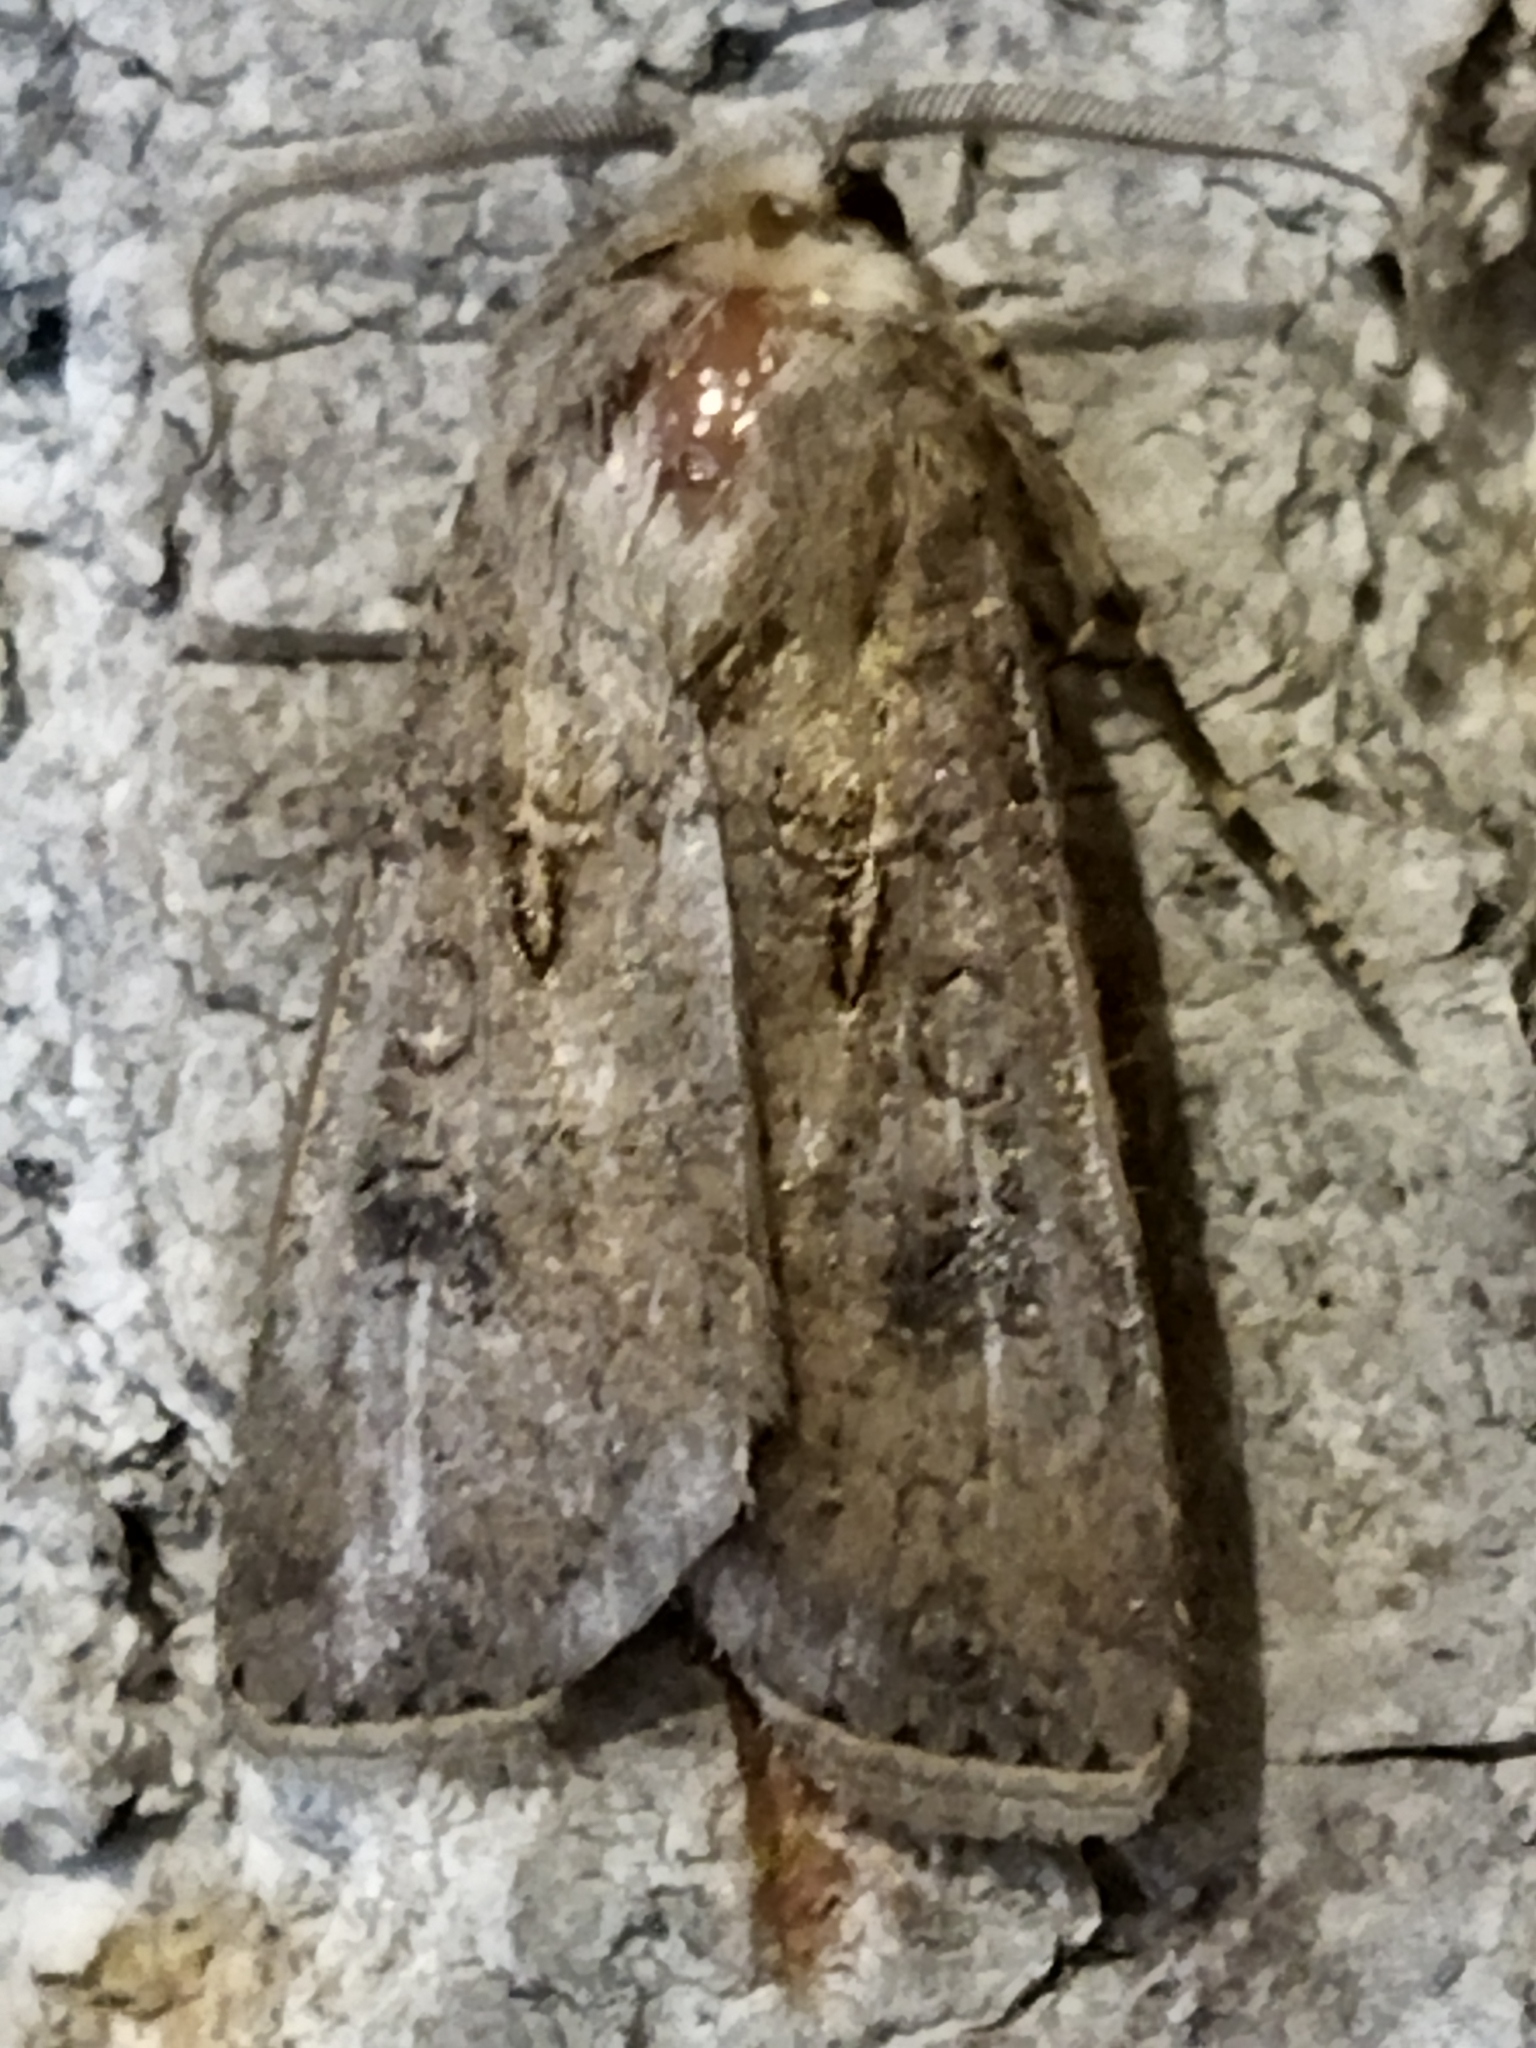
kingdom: Animalia
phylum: Arthropoda
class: Insecta
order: Lepidoptera
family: Noctuidae
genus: Agrotis
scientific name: Agrotis segetum
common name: Turnip moth
